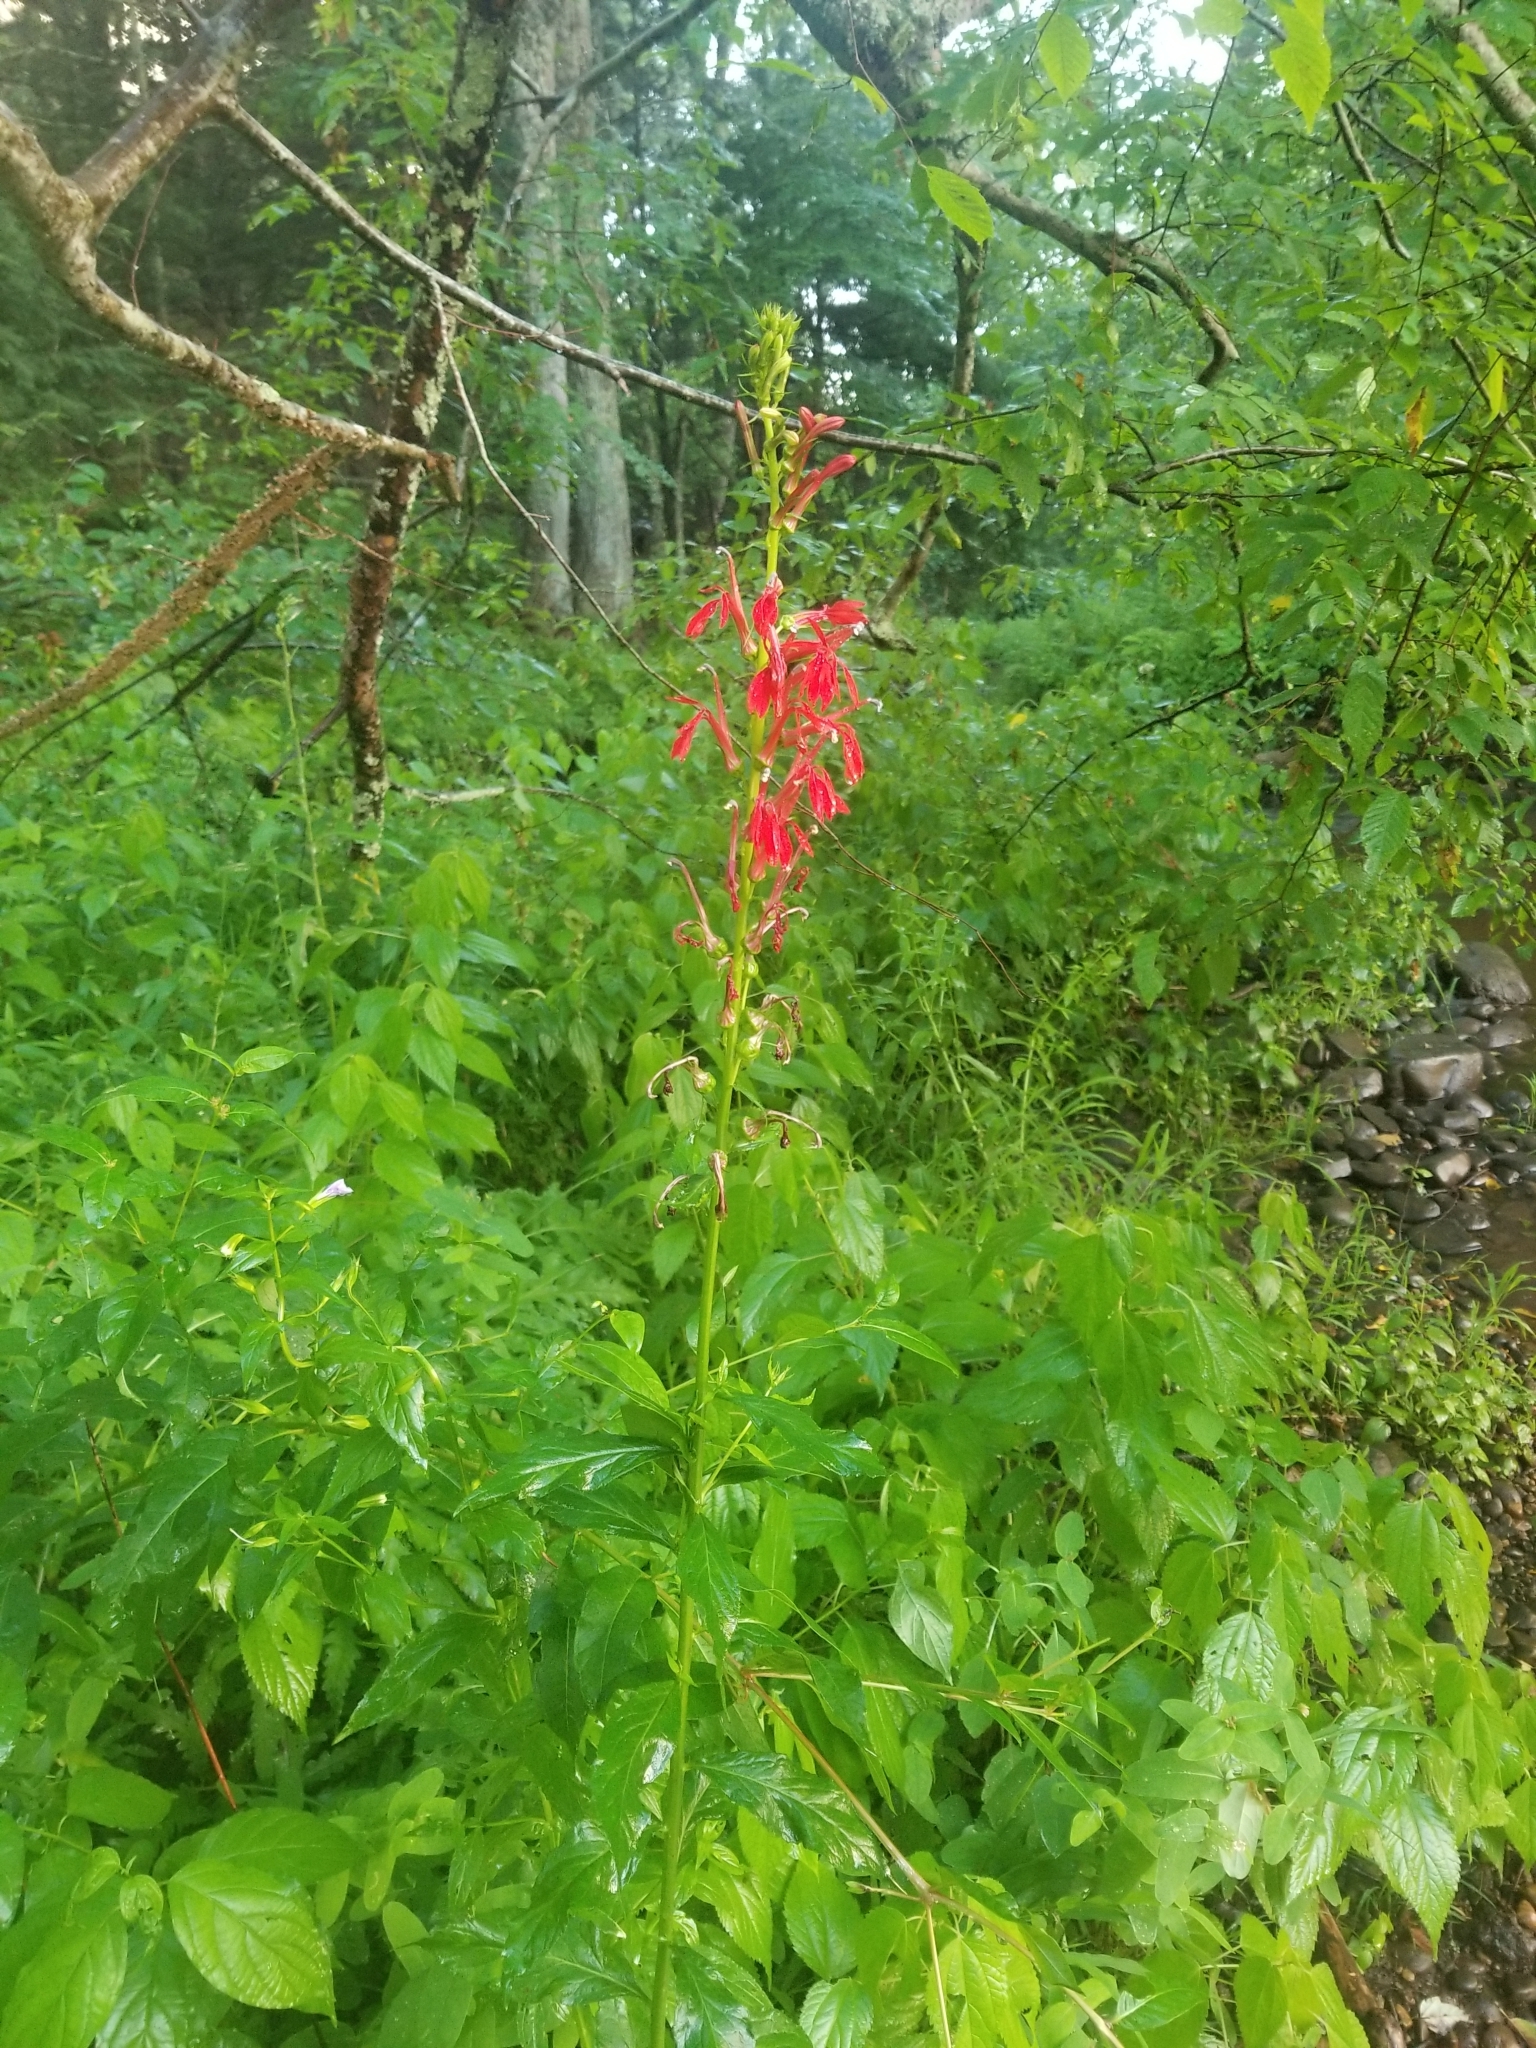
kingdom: Plantae
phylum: Tracheophyta
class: Magnoliopsida
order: Asterales
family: Campanulaceae
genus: Lobelia
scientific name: Lobelia cardinalis
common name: Cardinal flower
